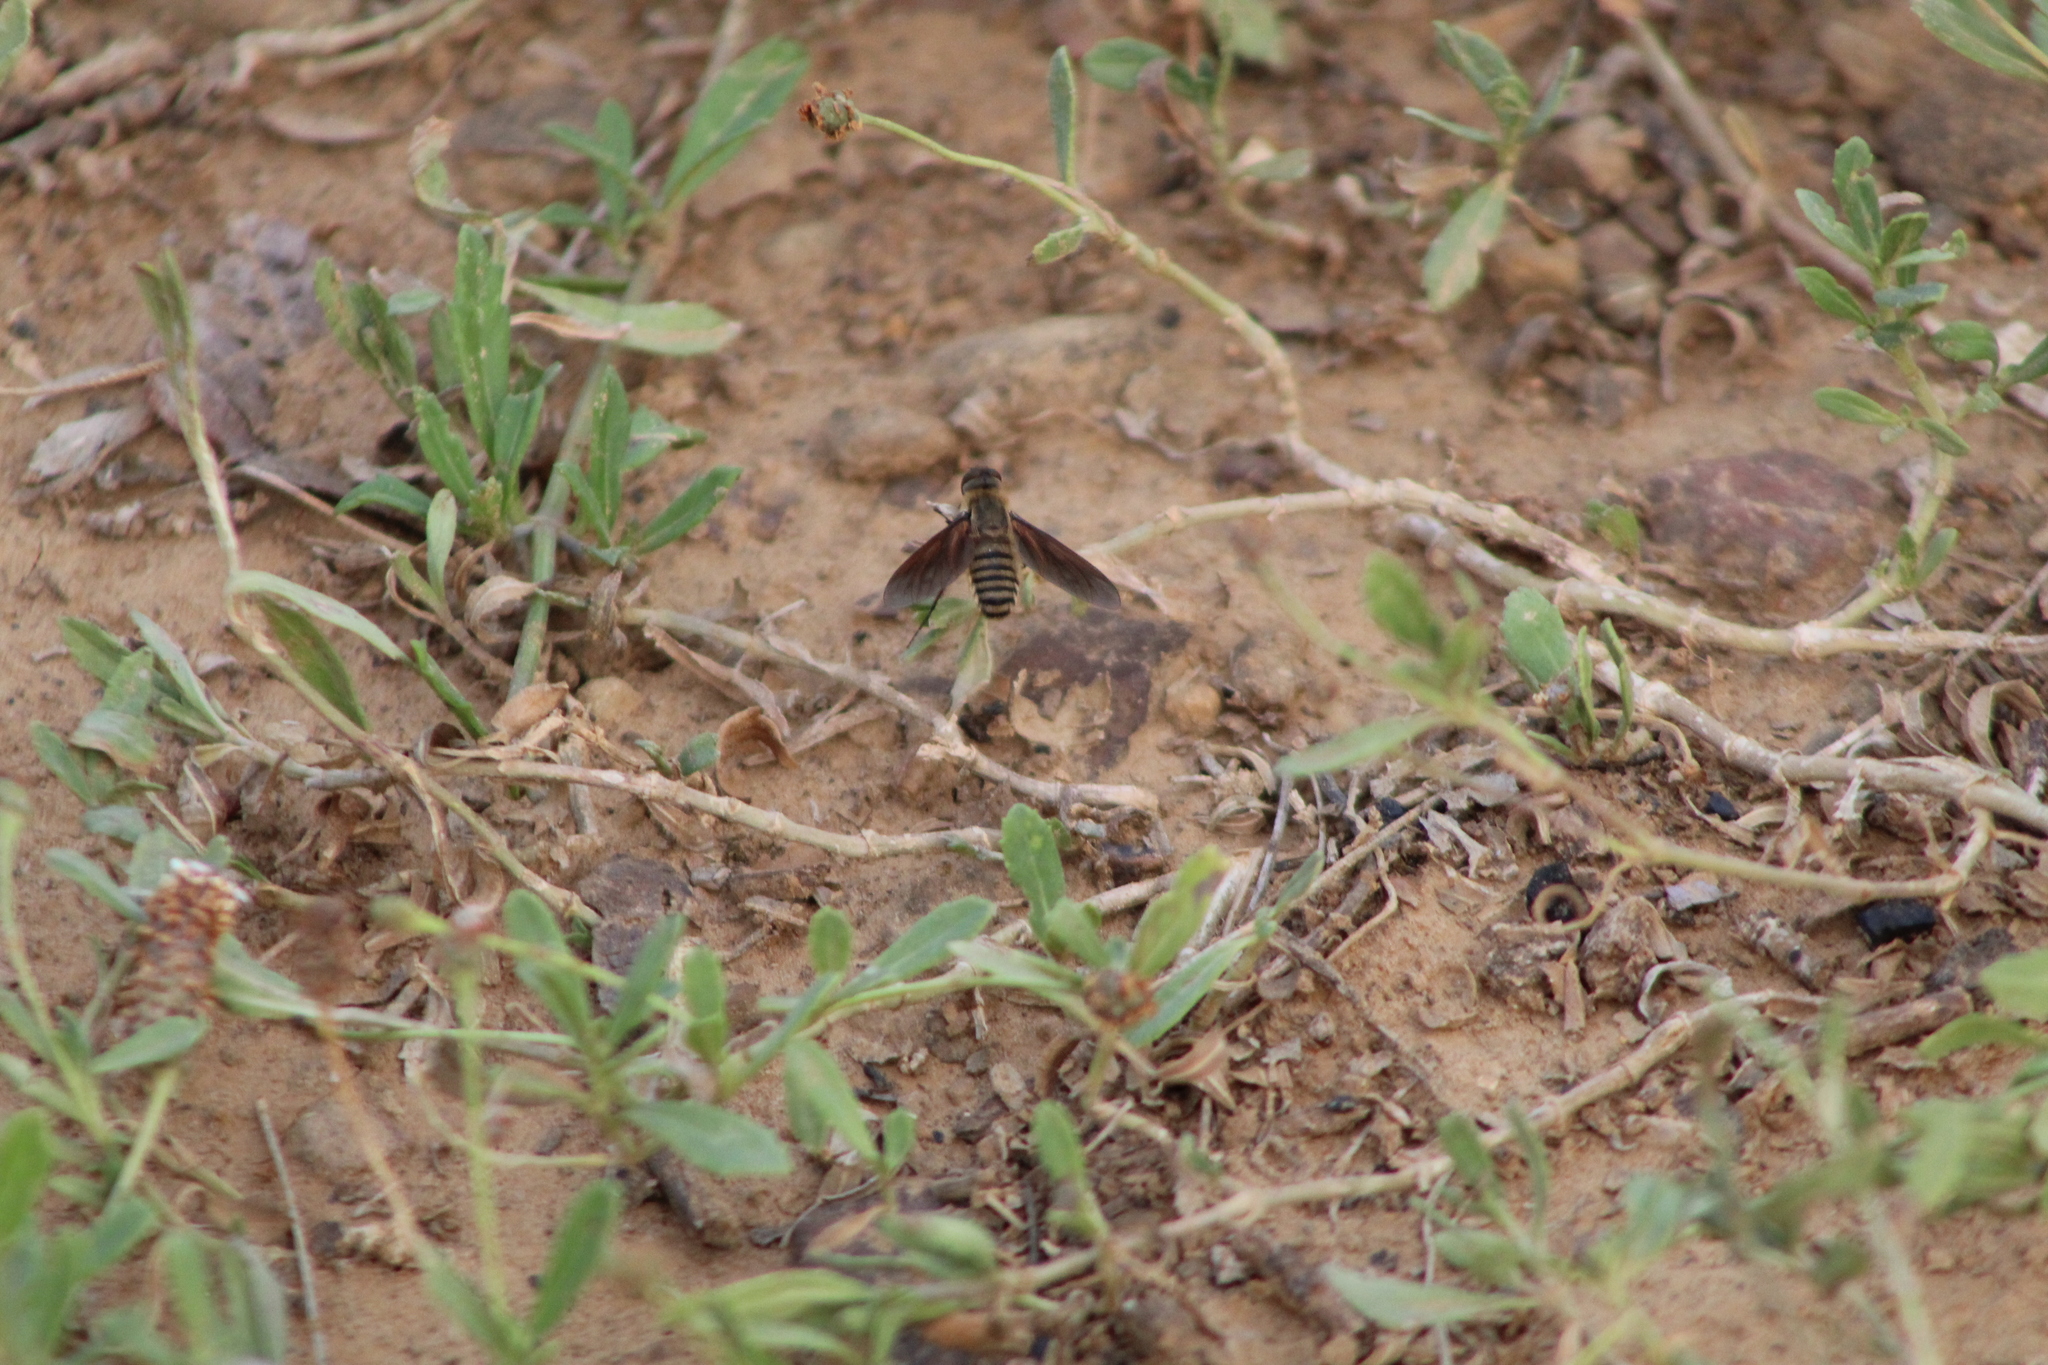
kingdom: Animalia
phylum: Arthropoda
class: Insecta
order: Diptera
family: Bombyliidae
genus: Poecilanthrax
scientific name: Poecilanthrax lucifer
